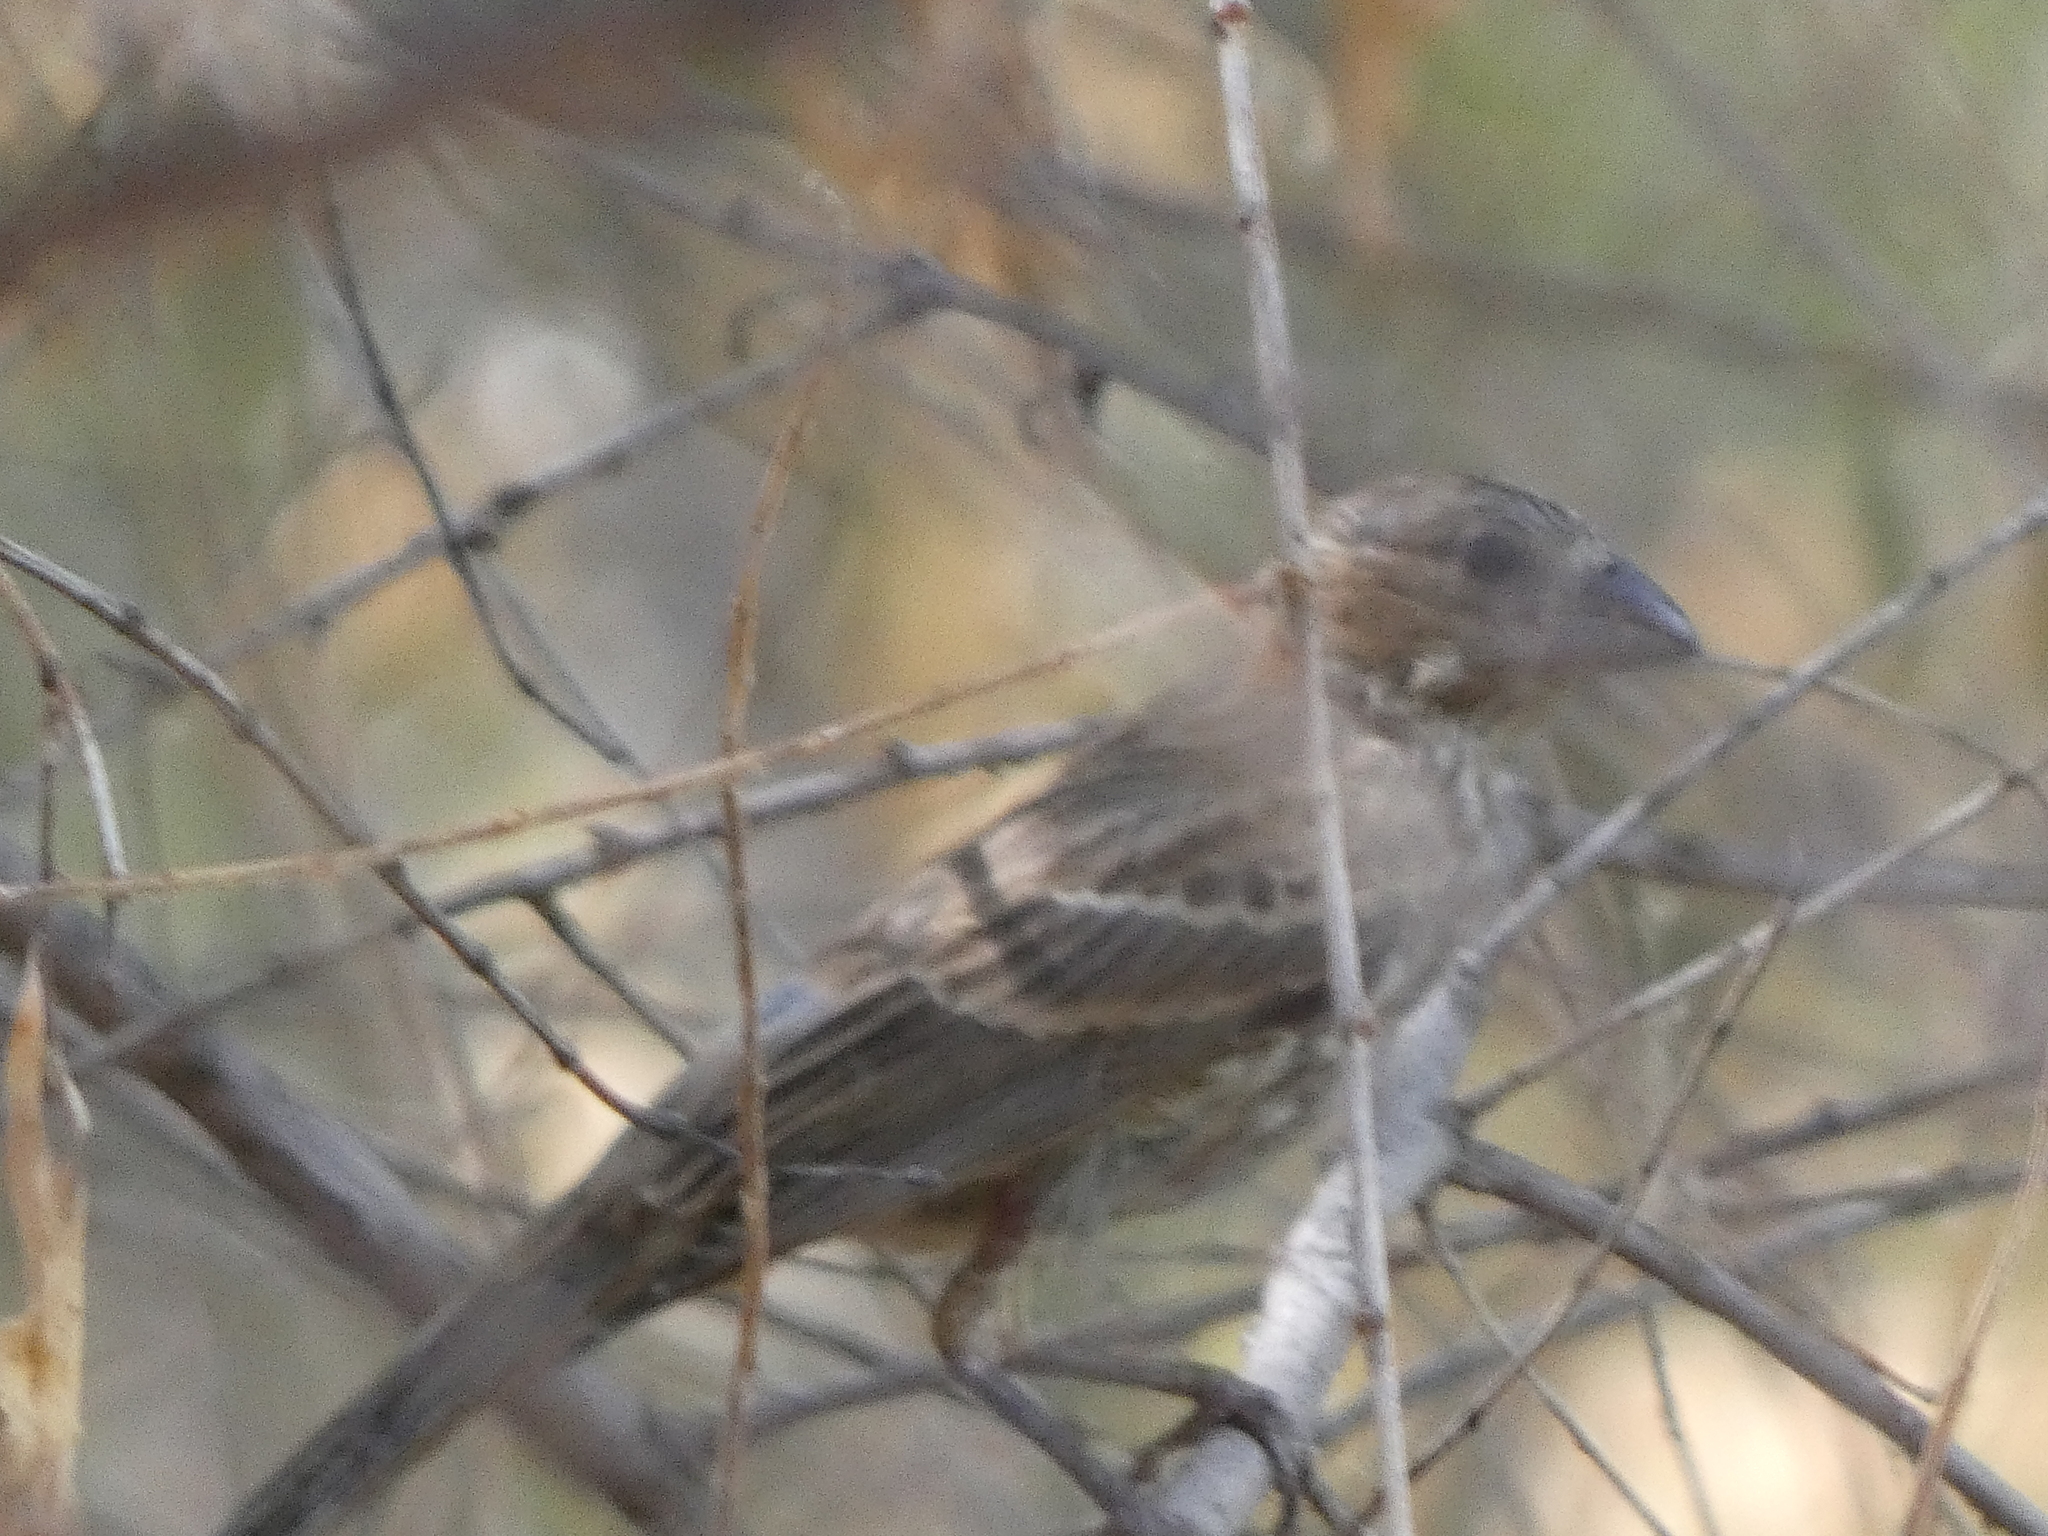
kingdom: Animalia
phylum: Chordata
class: Aves
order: Passeriformes
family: Fringillidae
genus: Haemorhous
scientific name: Haemorhous mexicanus
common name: House finch
